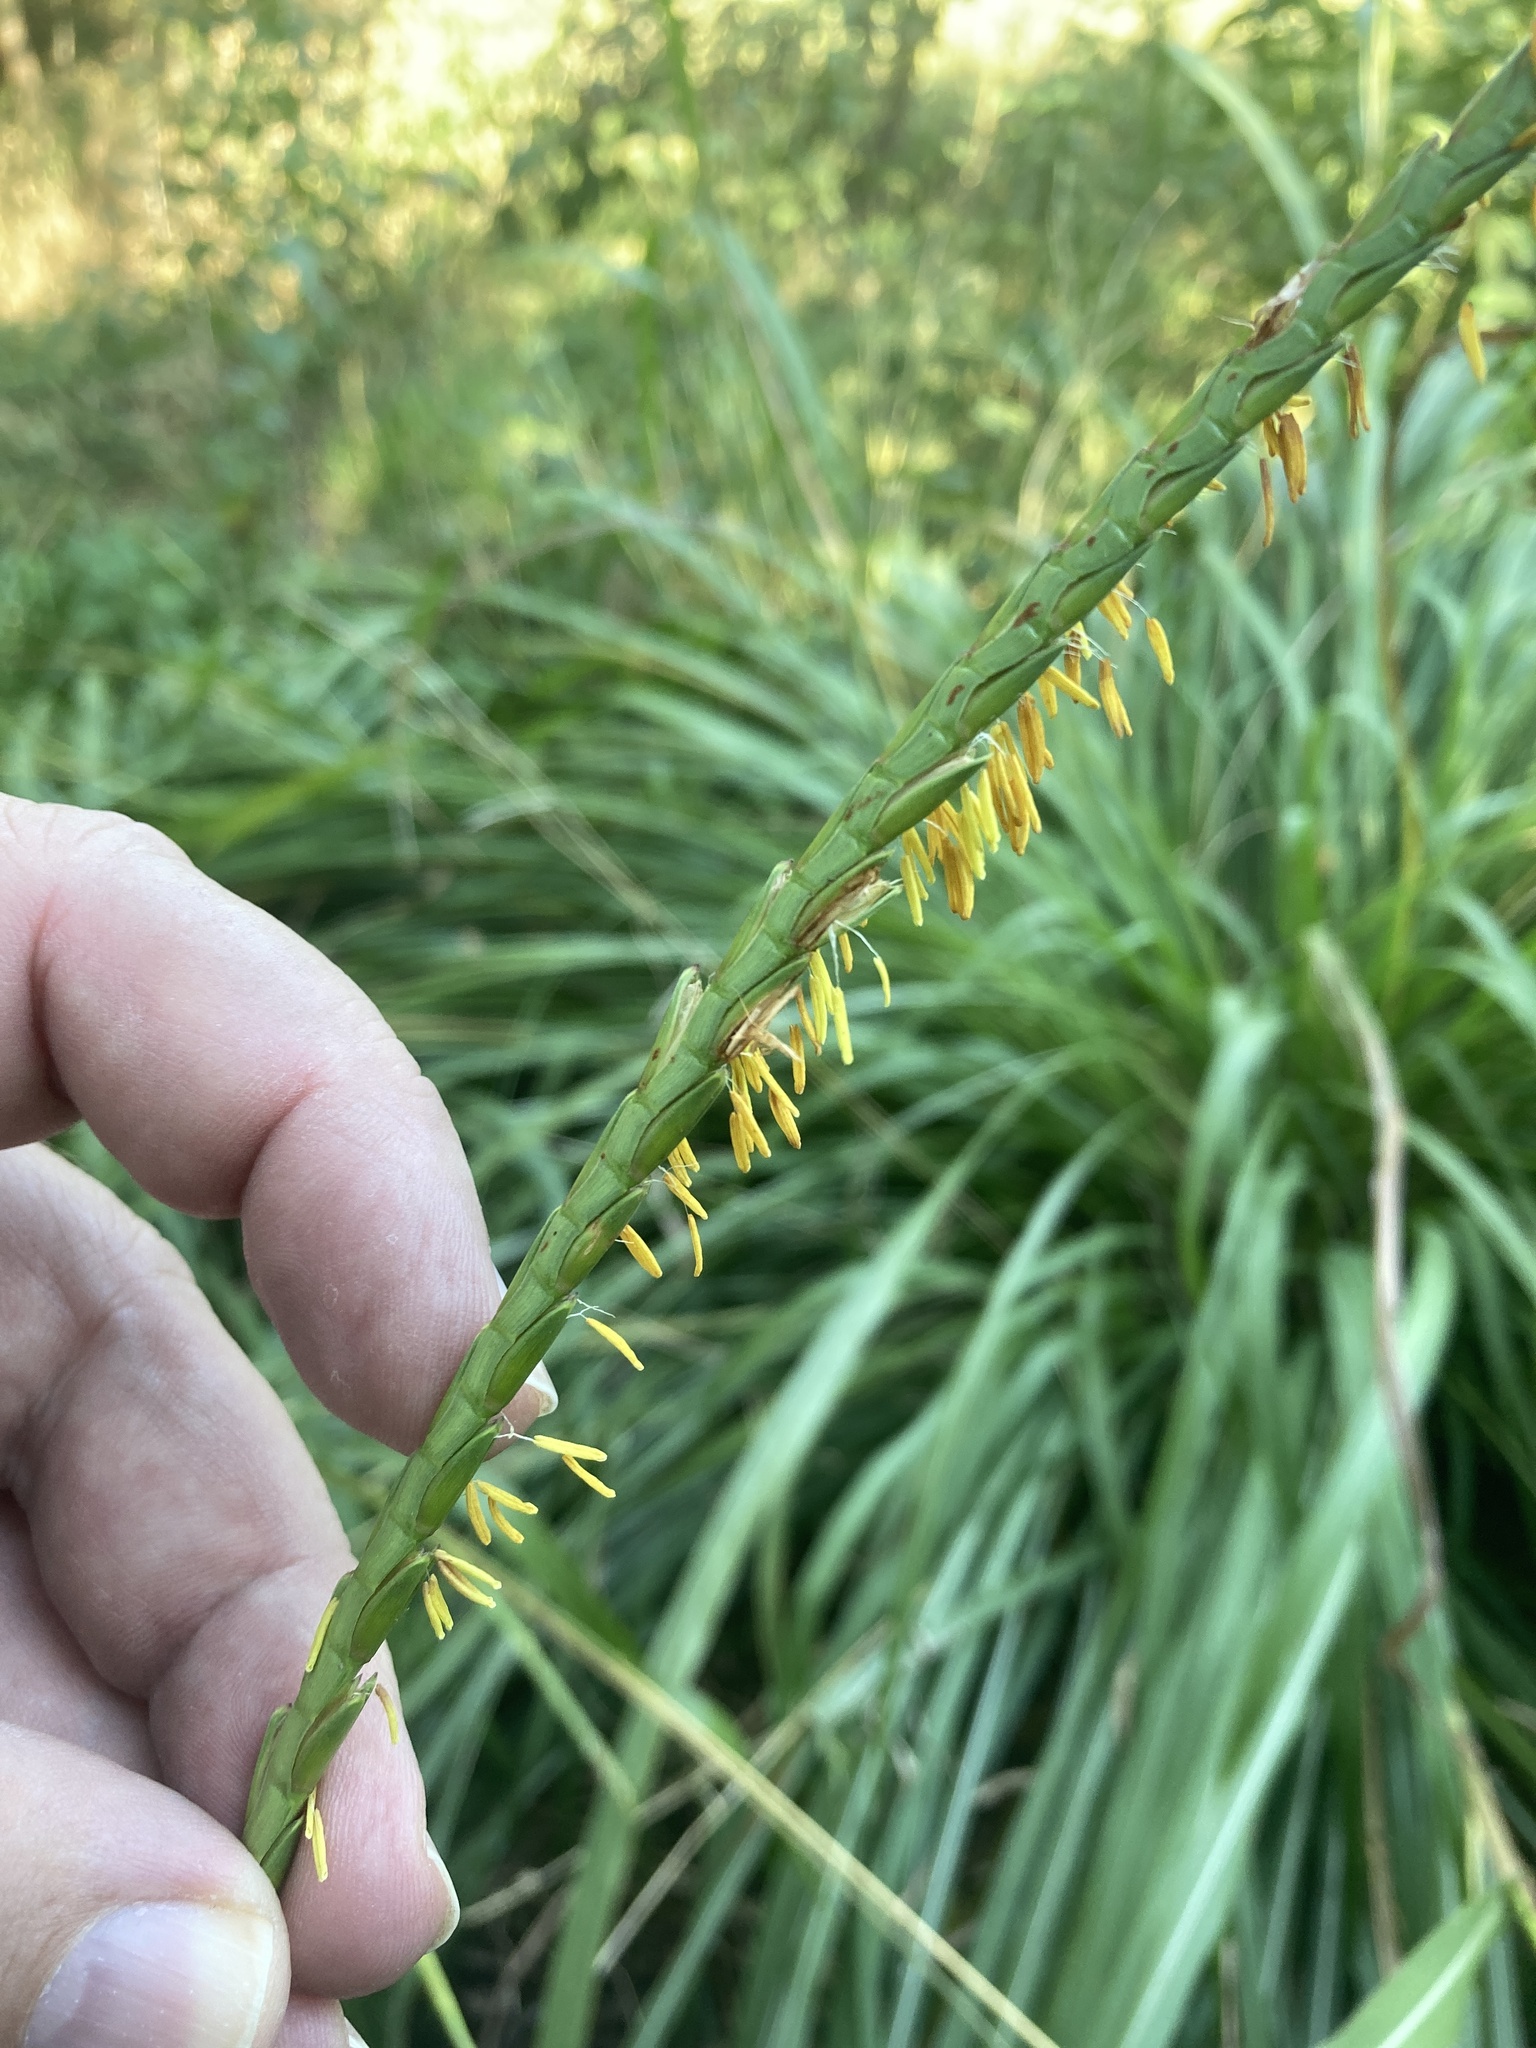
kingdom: Plantae
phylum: Tracheophyta
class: Liliopsida
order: Poales
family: Poaceae
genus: Tripsacum
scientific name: Tripsacum dactyloides
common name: Buffalo-grass
